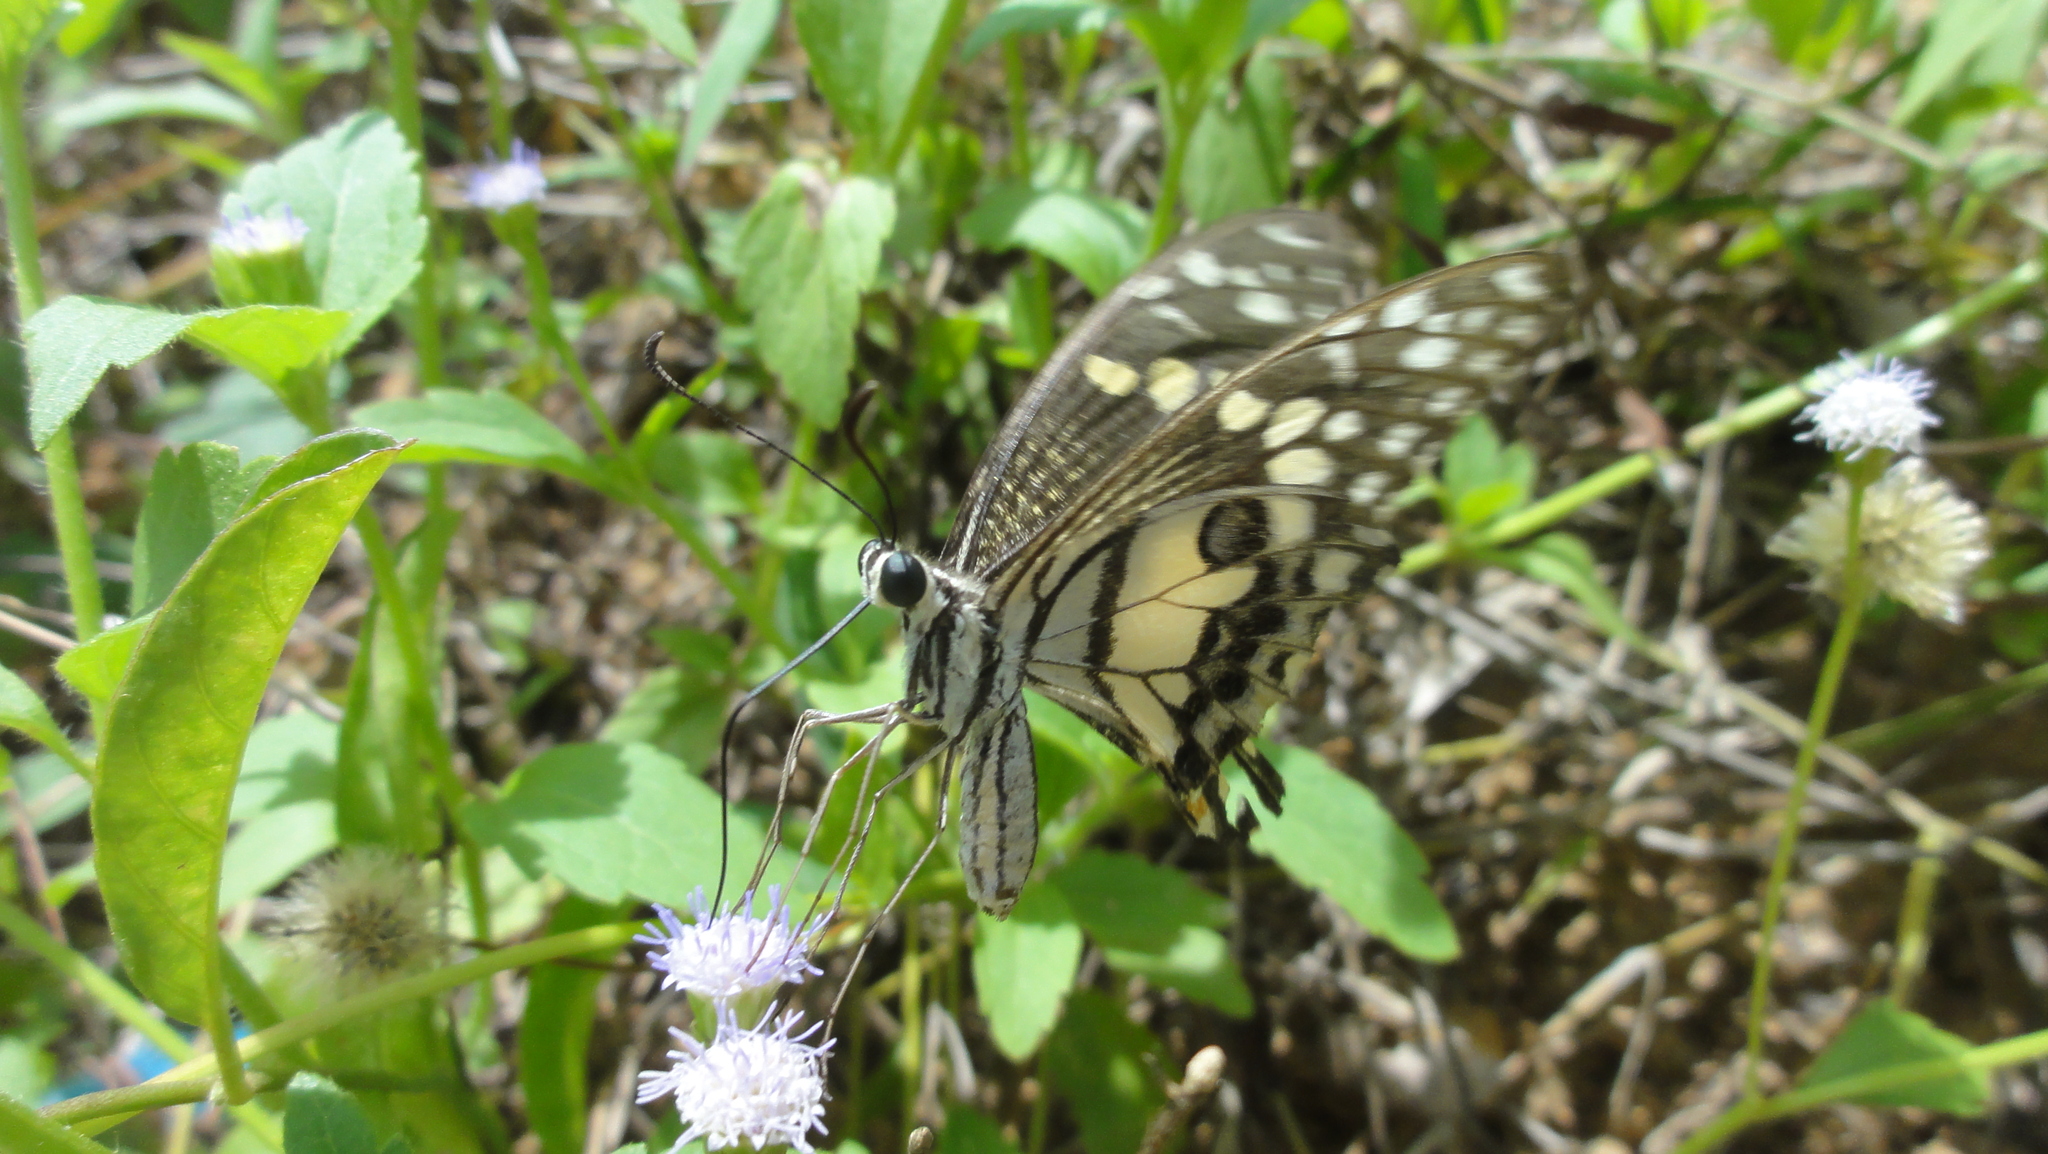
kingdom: Animalia
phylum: Arthropoda
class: Insecta
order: Lepidoptera
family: Papilionidae
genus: Papilio
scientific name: Papilio demoleus
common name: Lime butterfly
